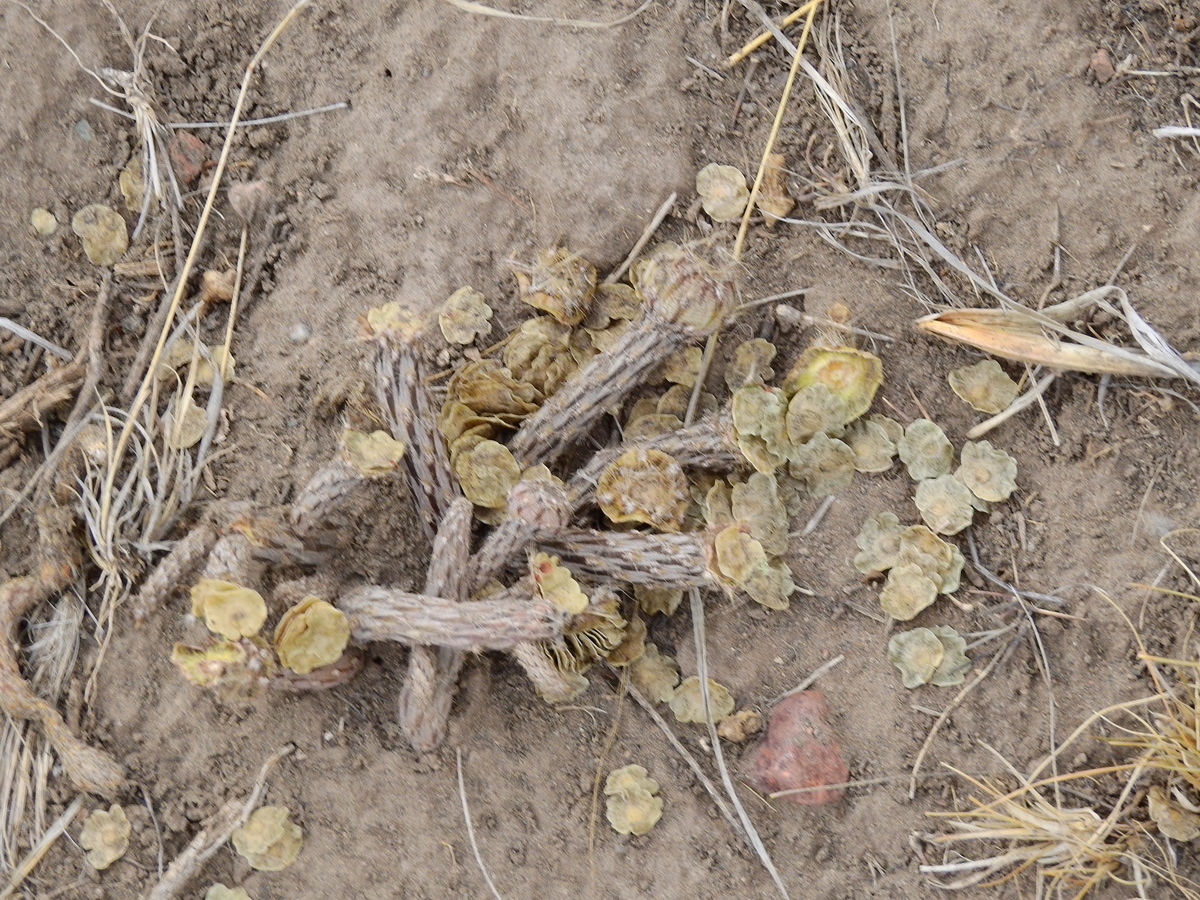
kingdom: Plantae
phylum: Tracheophyta
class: Magnoliopsida
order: Caryophyllales
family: Cactaceae
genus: Pterocactus
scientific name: Pterocactus tuberosus
